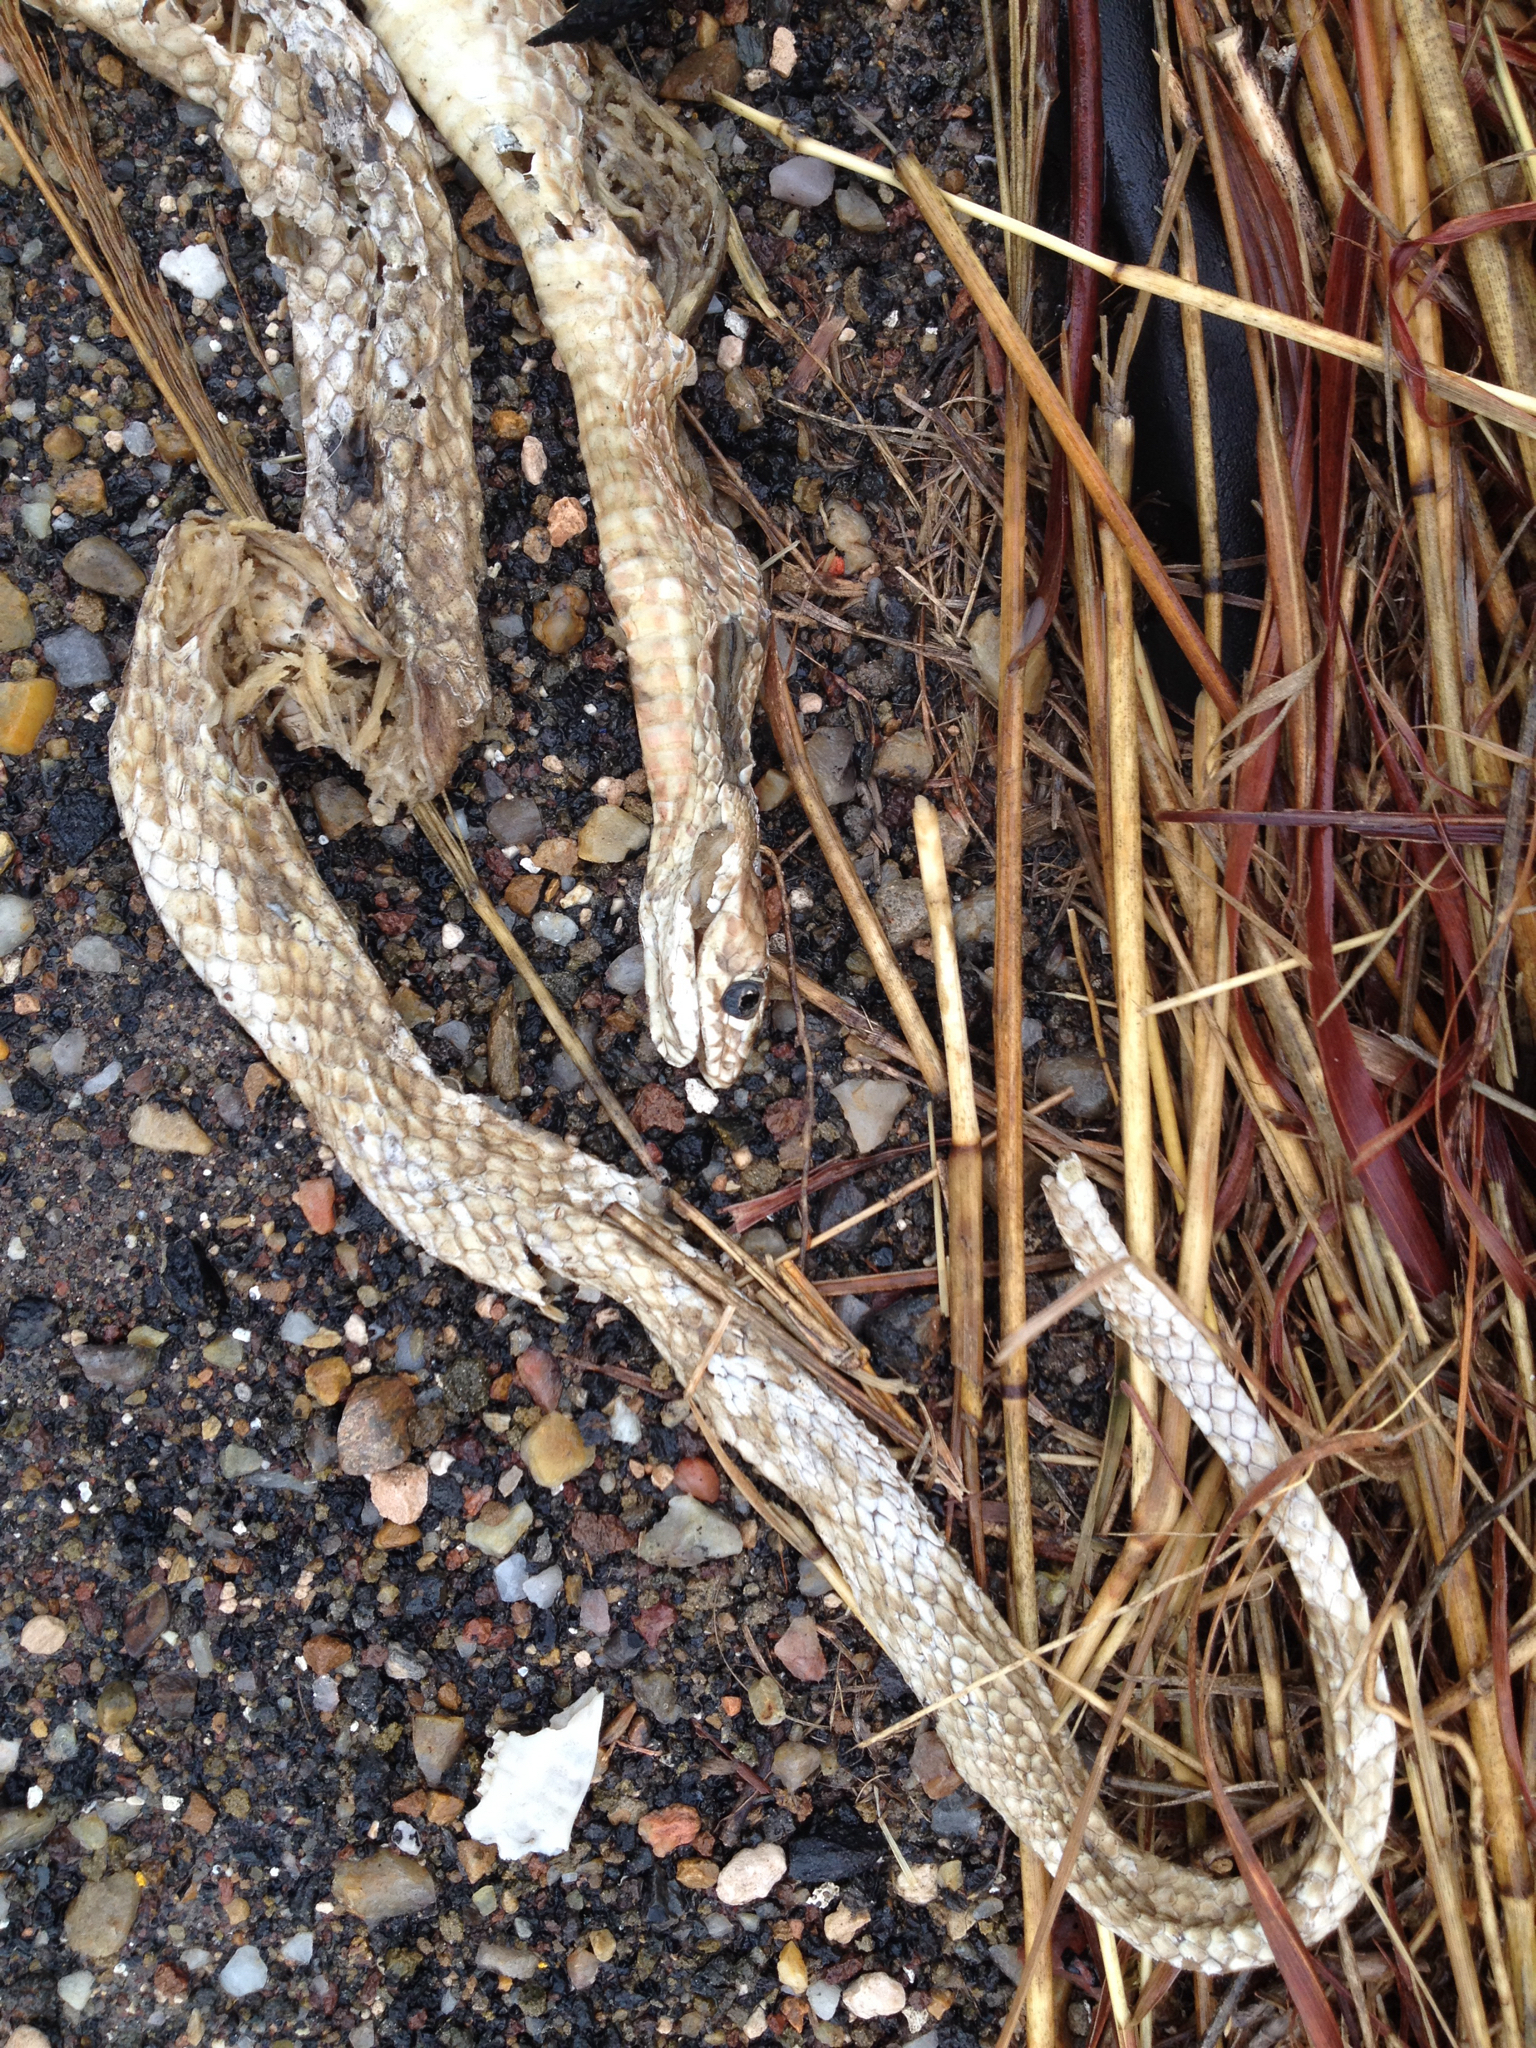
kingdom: Animalia
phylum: Chordata
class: Squamata
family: Colubridae
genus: Masticophis
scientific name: Masticophis flagellum
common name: Coachwhip
